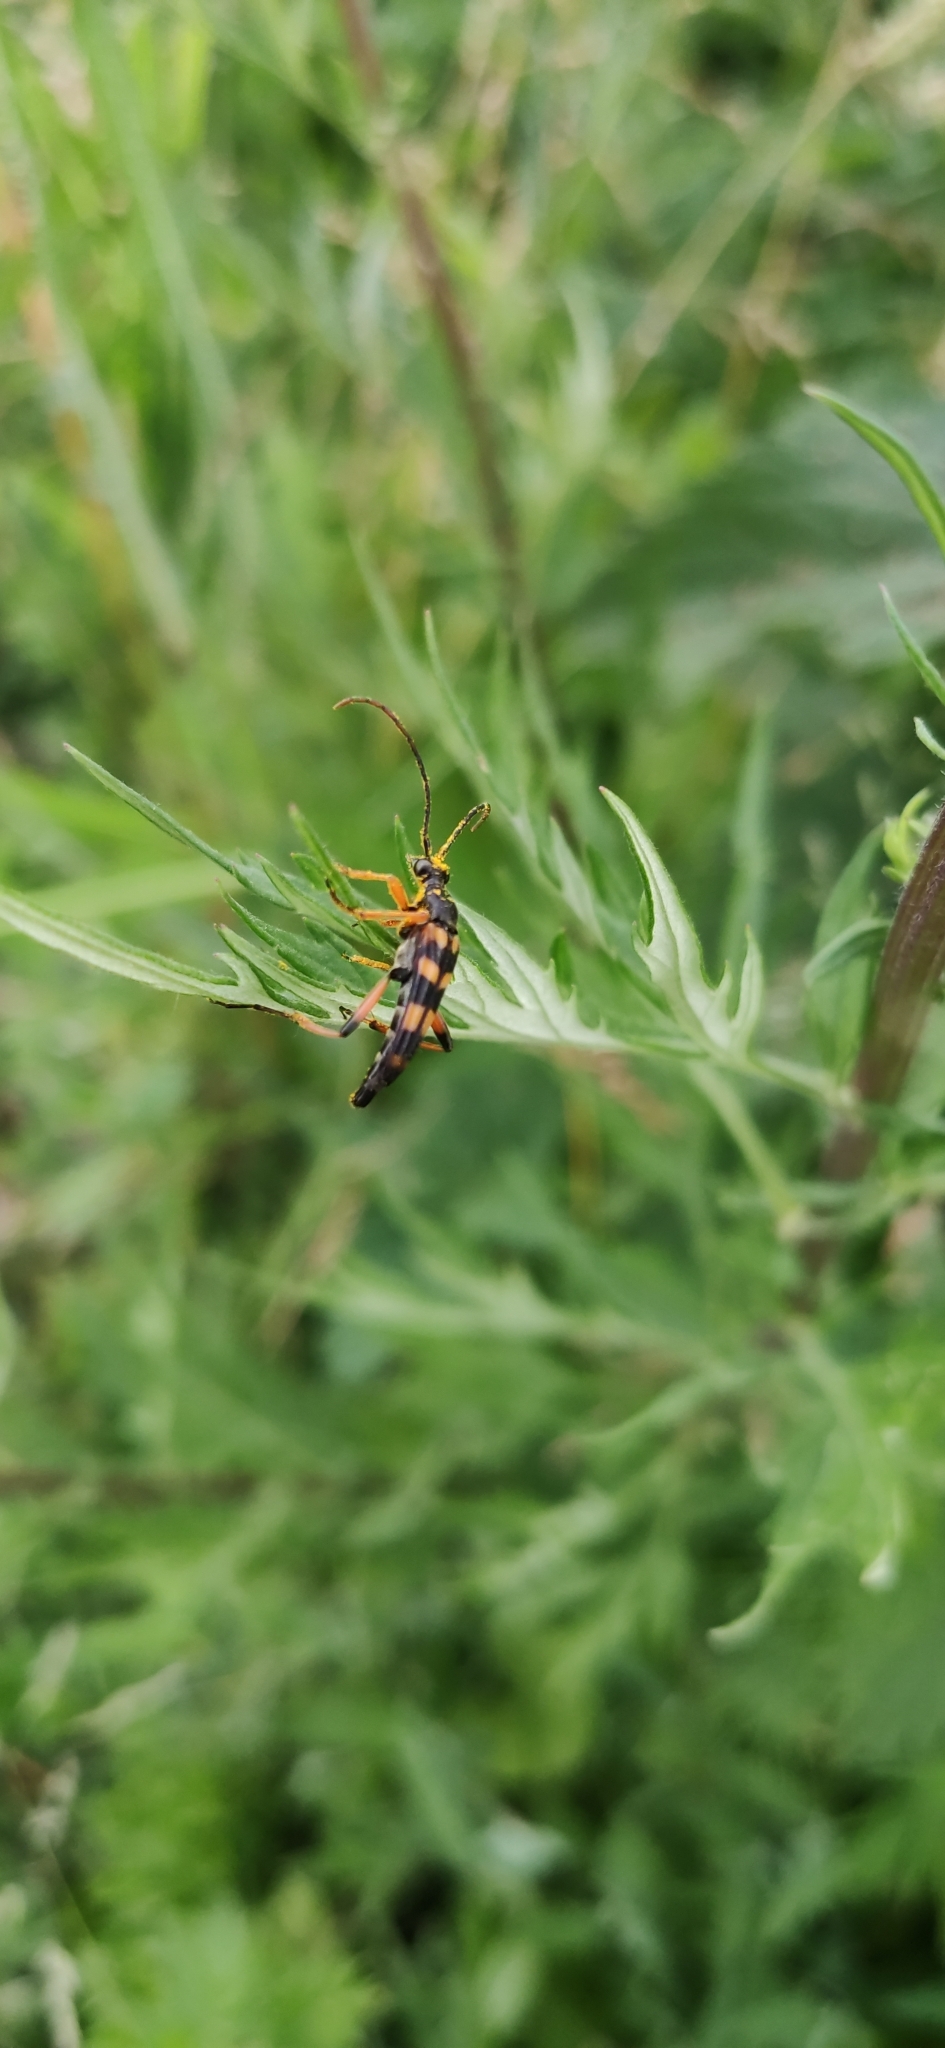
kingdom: Animalia
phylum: Arthropoda
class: Insecta
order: Coleoptera
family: Cerambycidae
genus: Strangalia
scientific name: Strangalia attenuata
